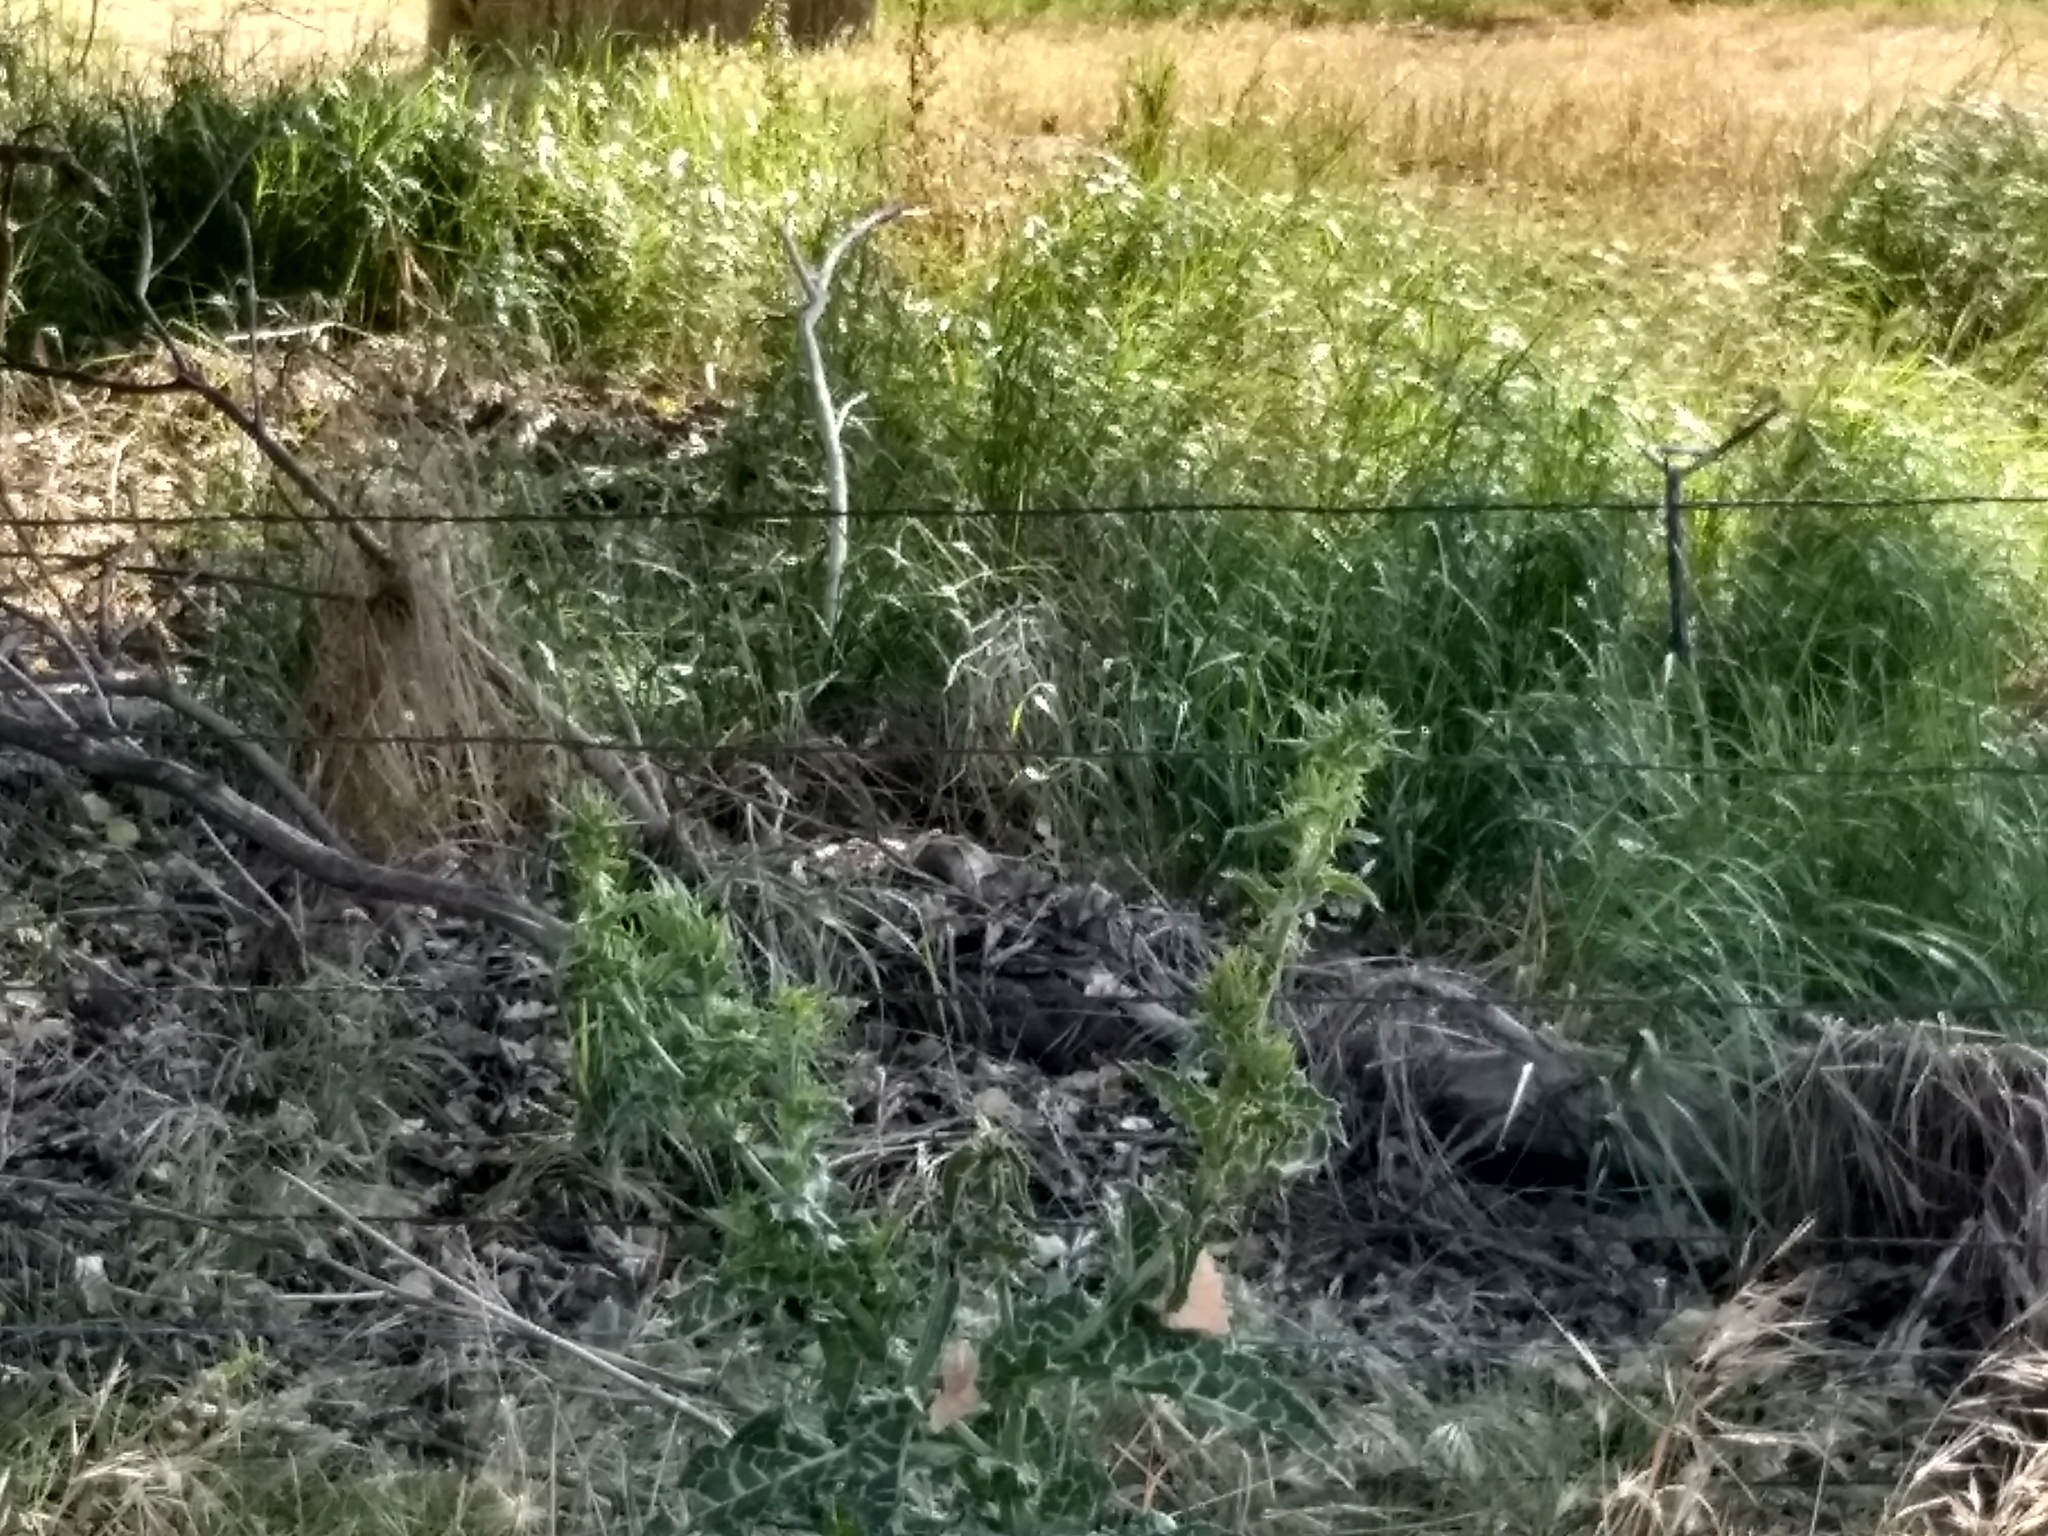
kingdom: Plantae
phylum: Tracheophyta
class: Liliopsida
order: Poales
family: Poaceae
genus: Leymus
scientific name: Leymus triticoides
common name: Beardless wild rye
